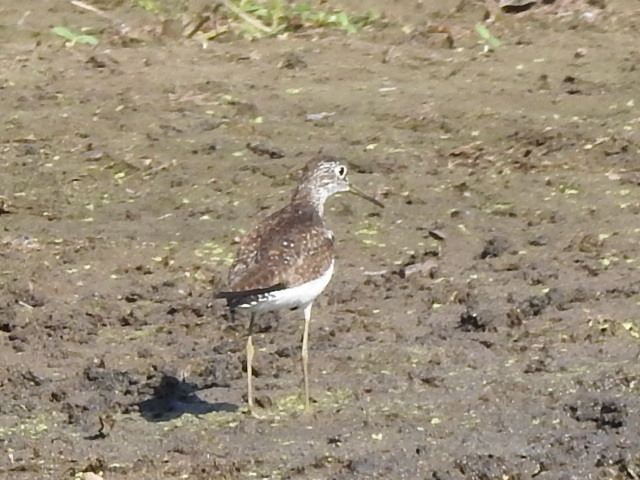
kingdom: Animalia
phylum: Chordata
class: Aves
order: Charadriiformes
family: Scolopacidae
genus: Tringa
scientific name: Tringa solitaria
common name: Solitary sandpiper
